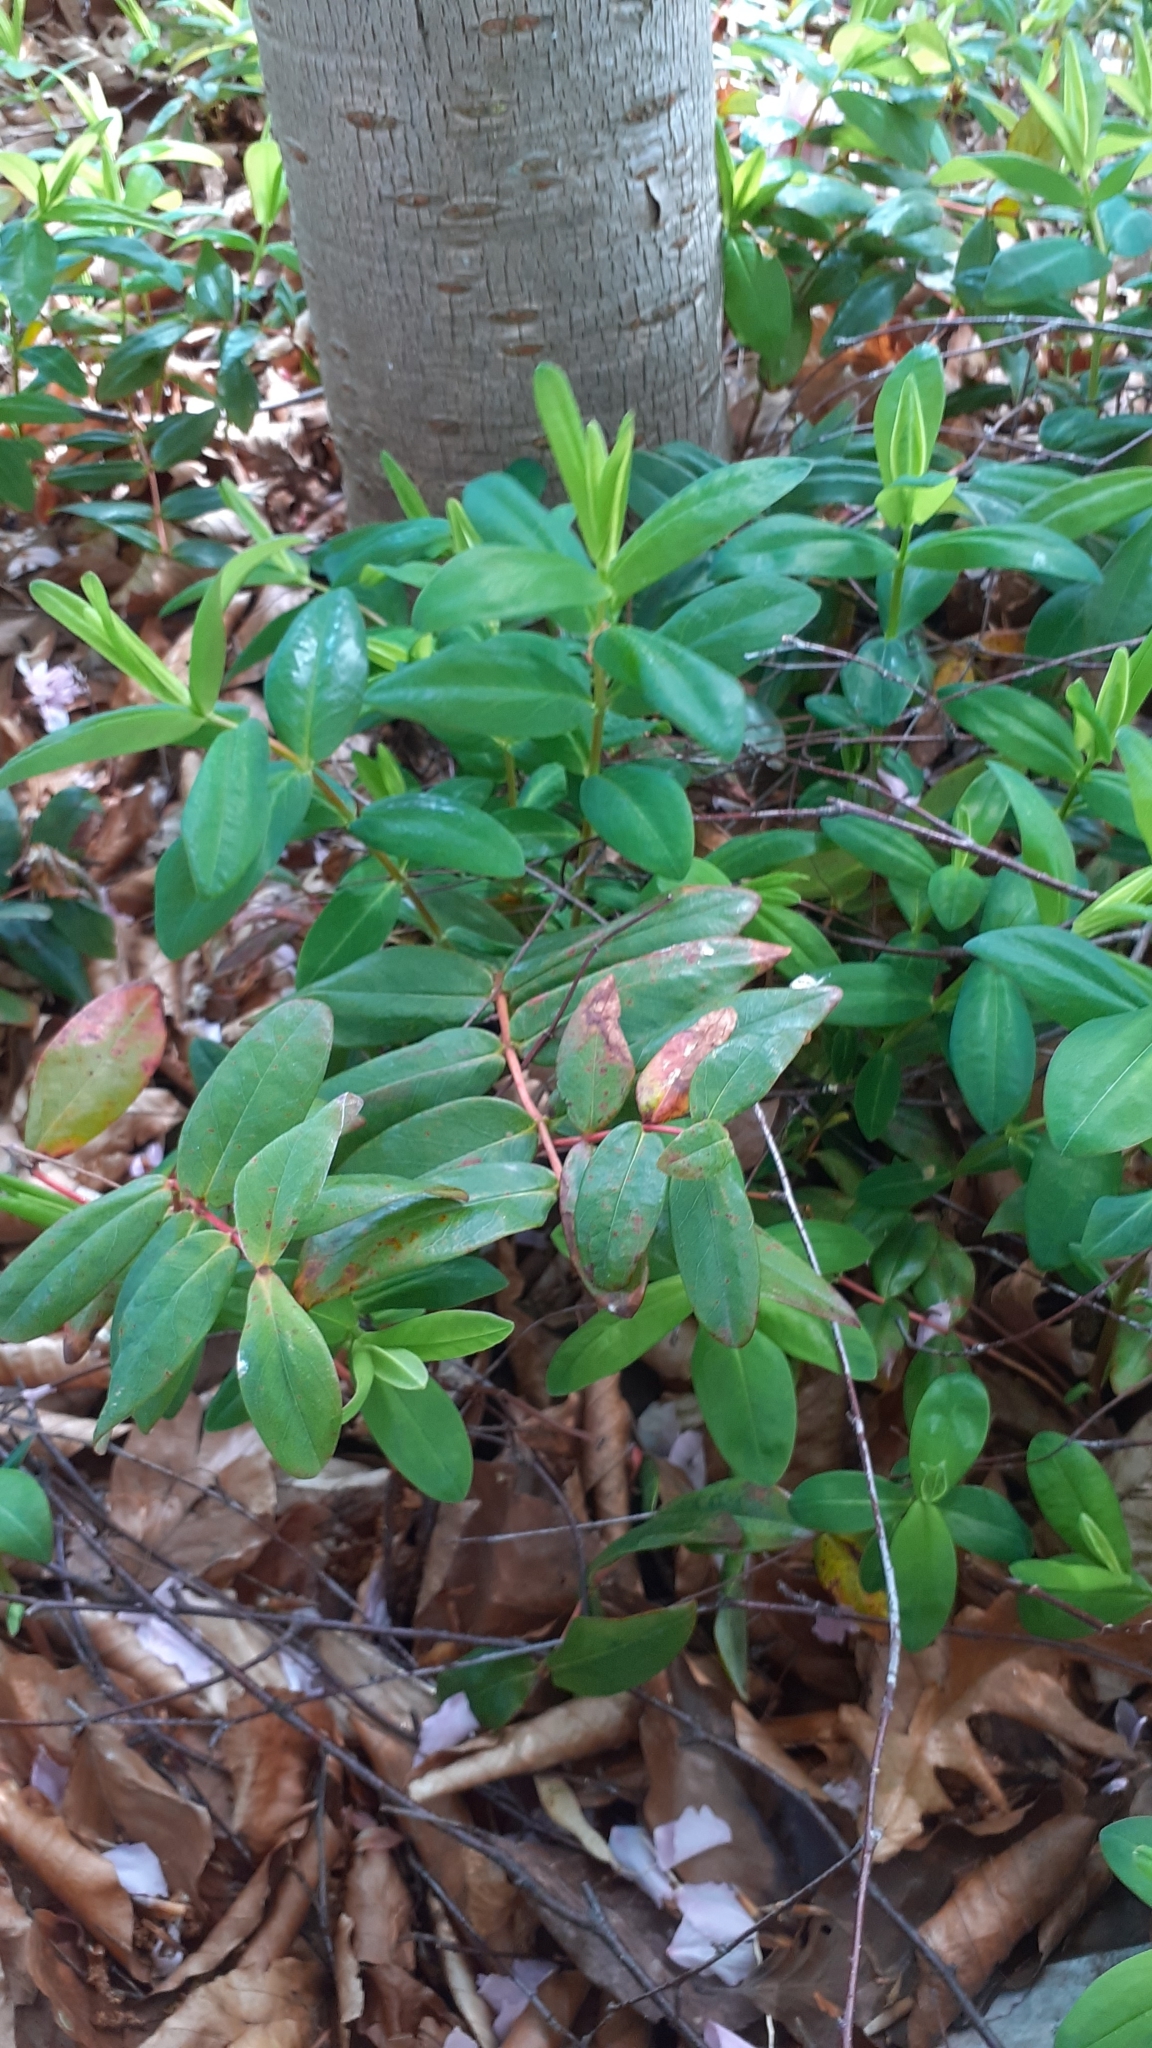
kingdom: Plantae
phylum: Tracheophyta
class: Magnoliopsida
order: Malpighiales
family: Hypericaceae
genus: Hypericum
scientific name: Hypericum calycinum
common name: Rose-of-sharon
